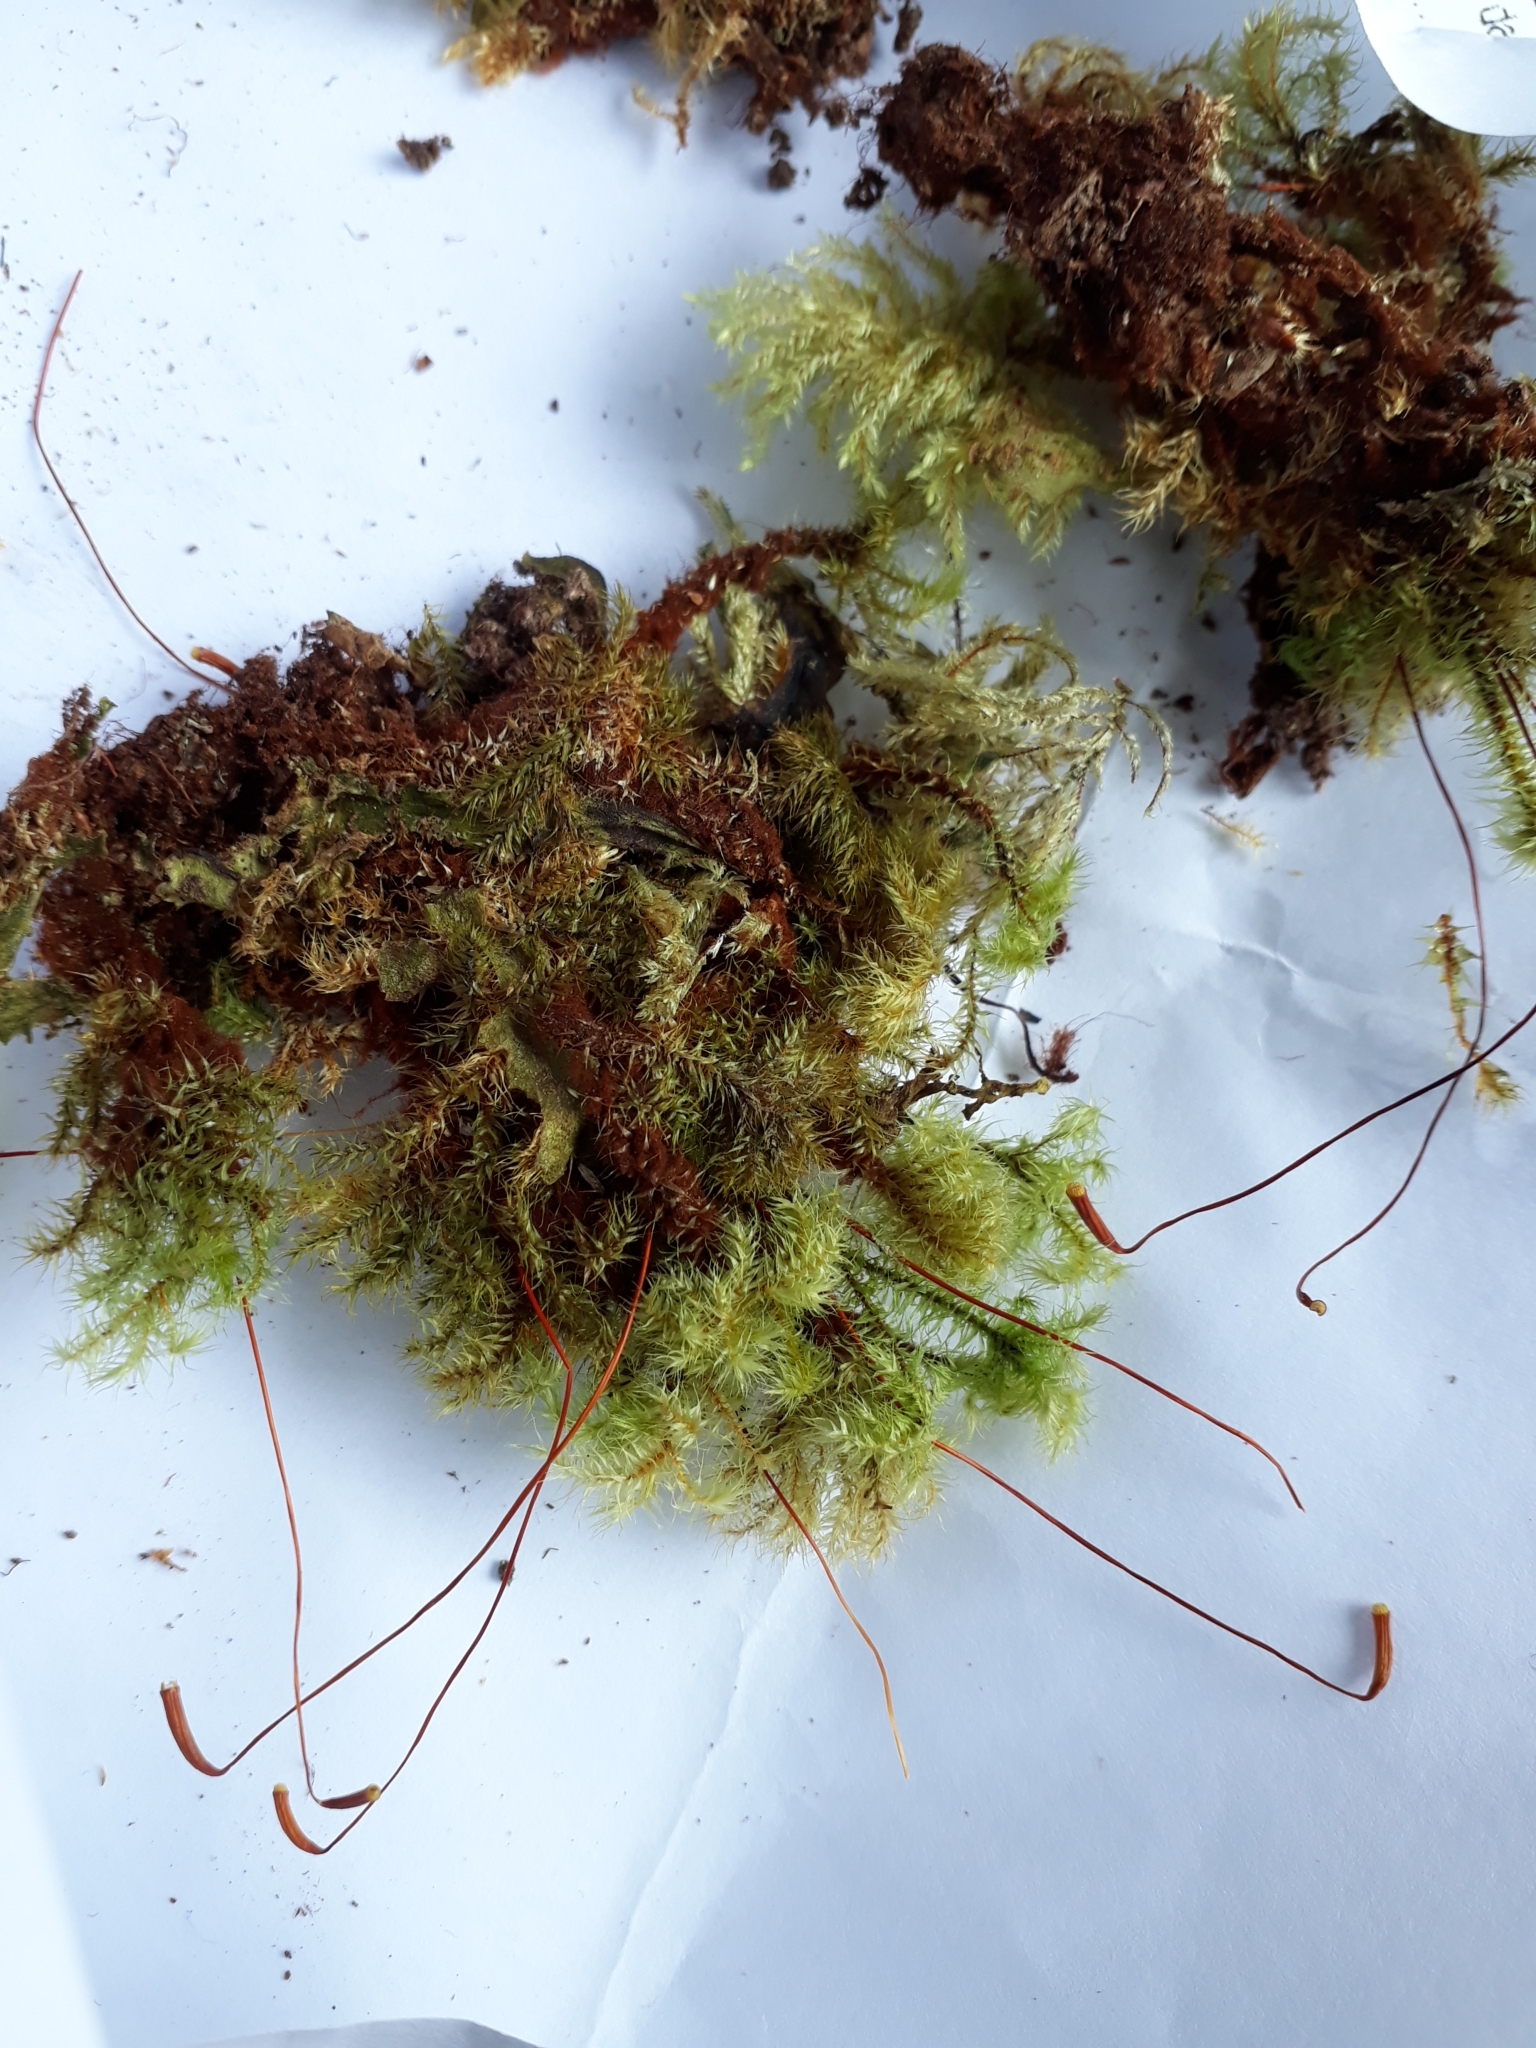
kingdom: Plantae
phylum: Bryophyta
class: Bryopsida
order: Hypnodendrales
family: Spiridentaceae
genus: Mniodendron
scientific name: Mniodendron colensoi
